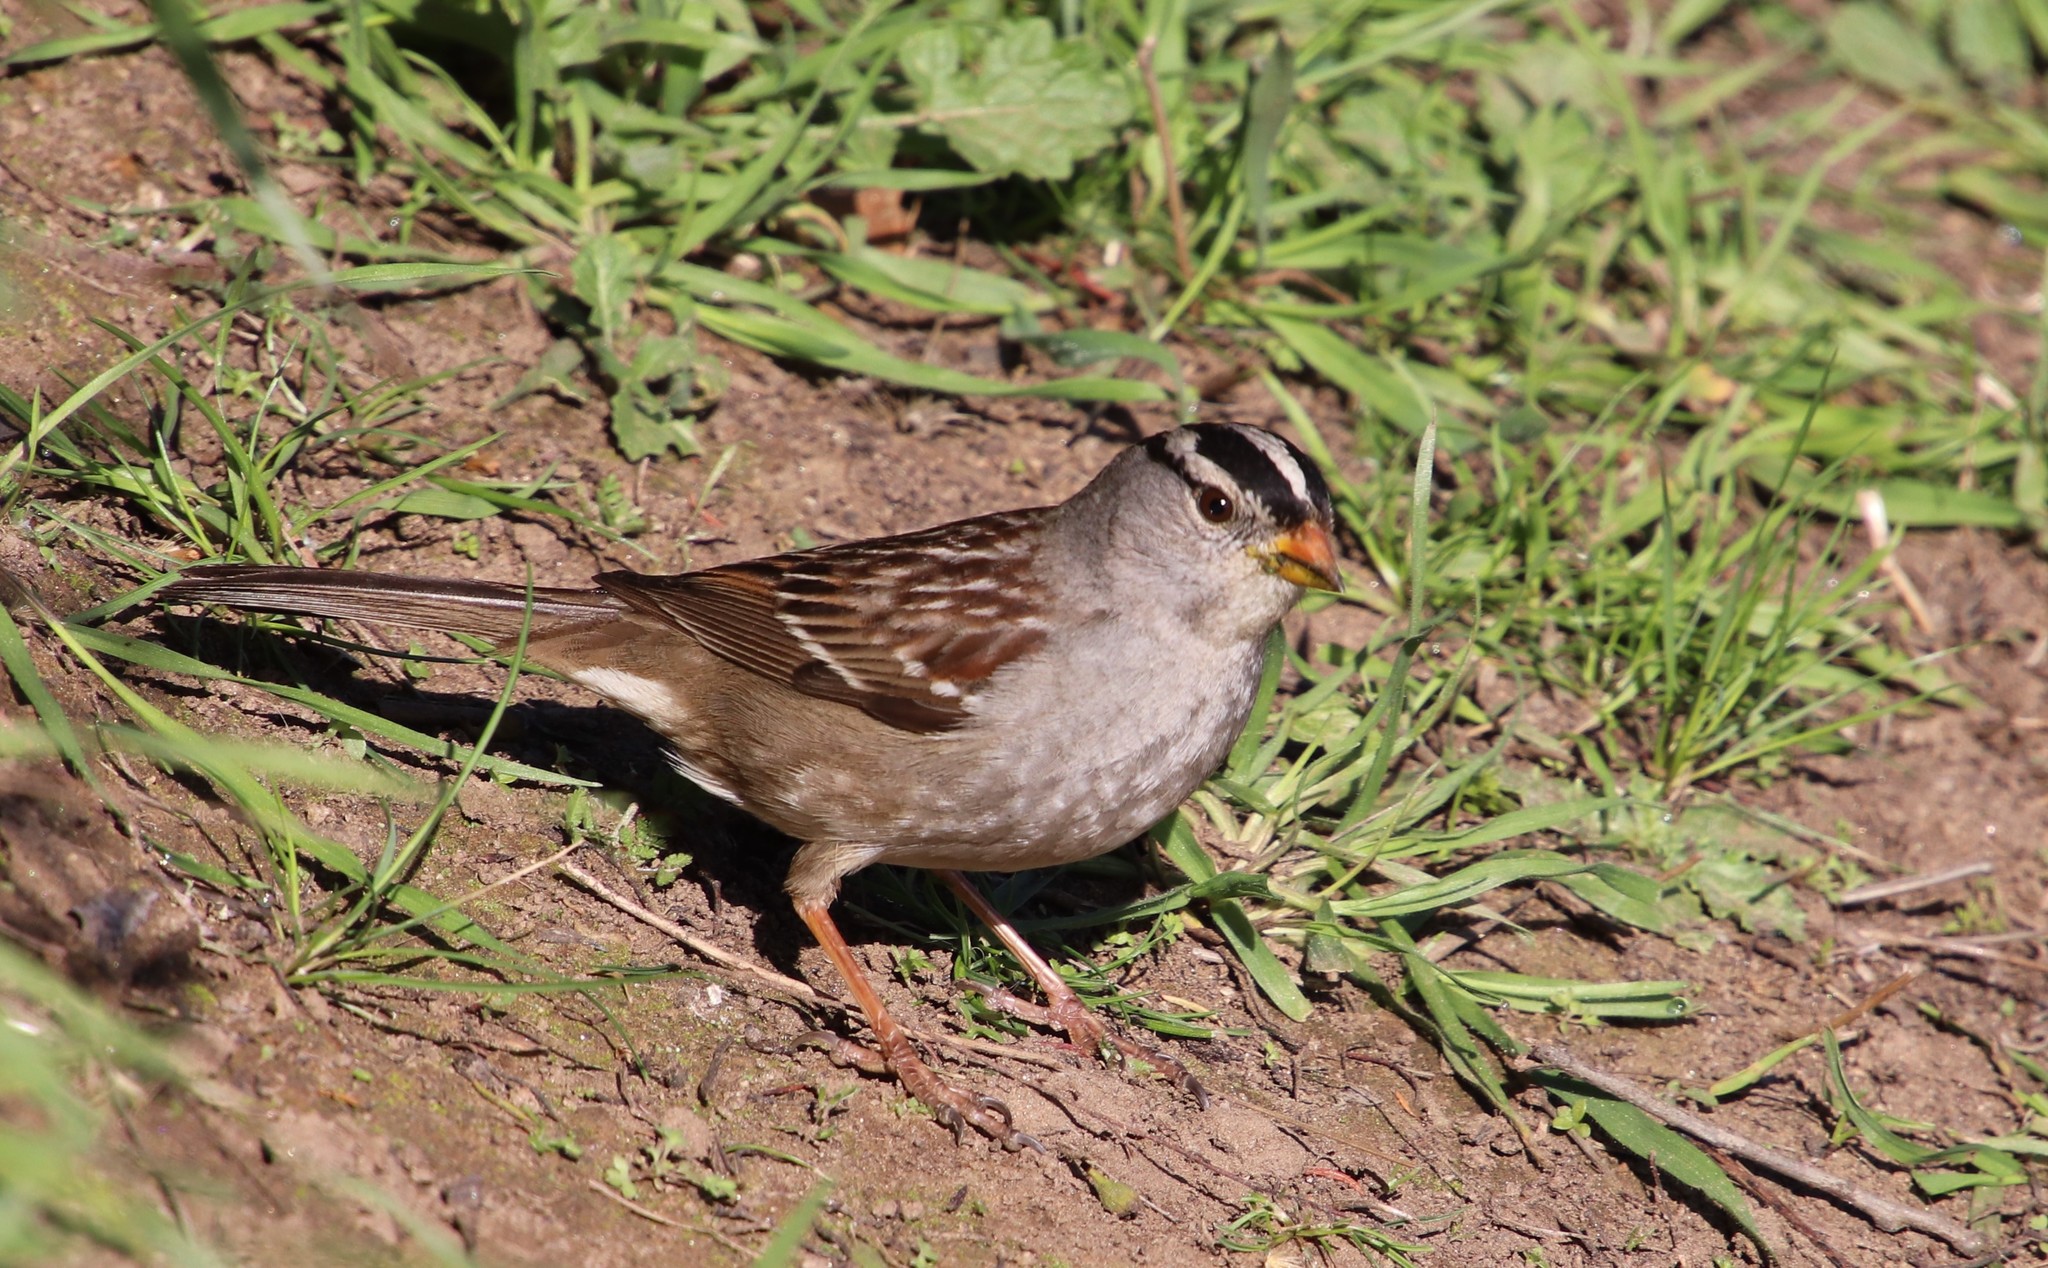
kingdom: Animalia
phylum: Chordata
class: Aves
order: Passeriformes
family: Passerellidae
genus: Zonotrichia
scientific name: Zonotrichia leucophrys
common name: White-crowned sparrow
